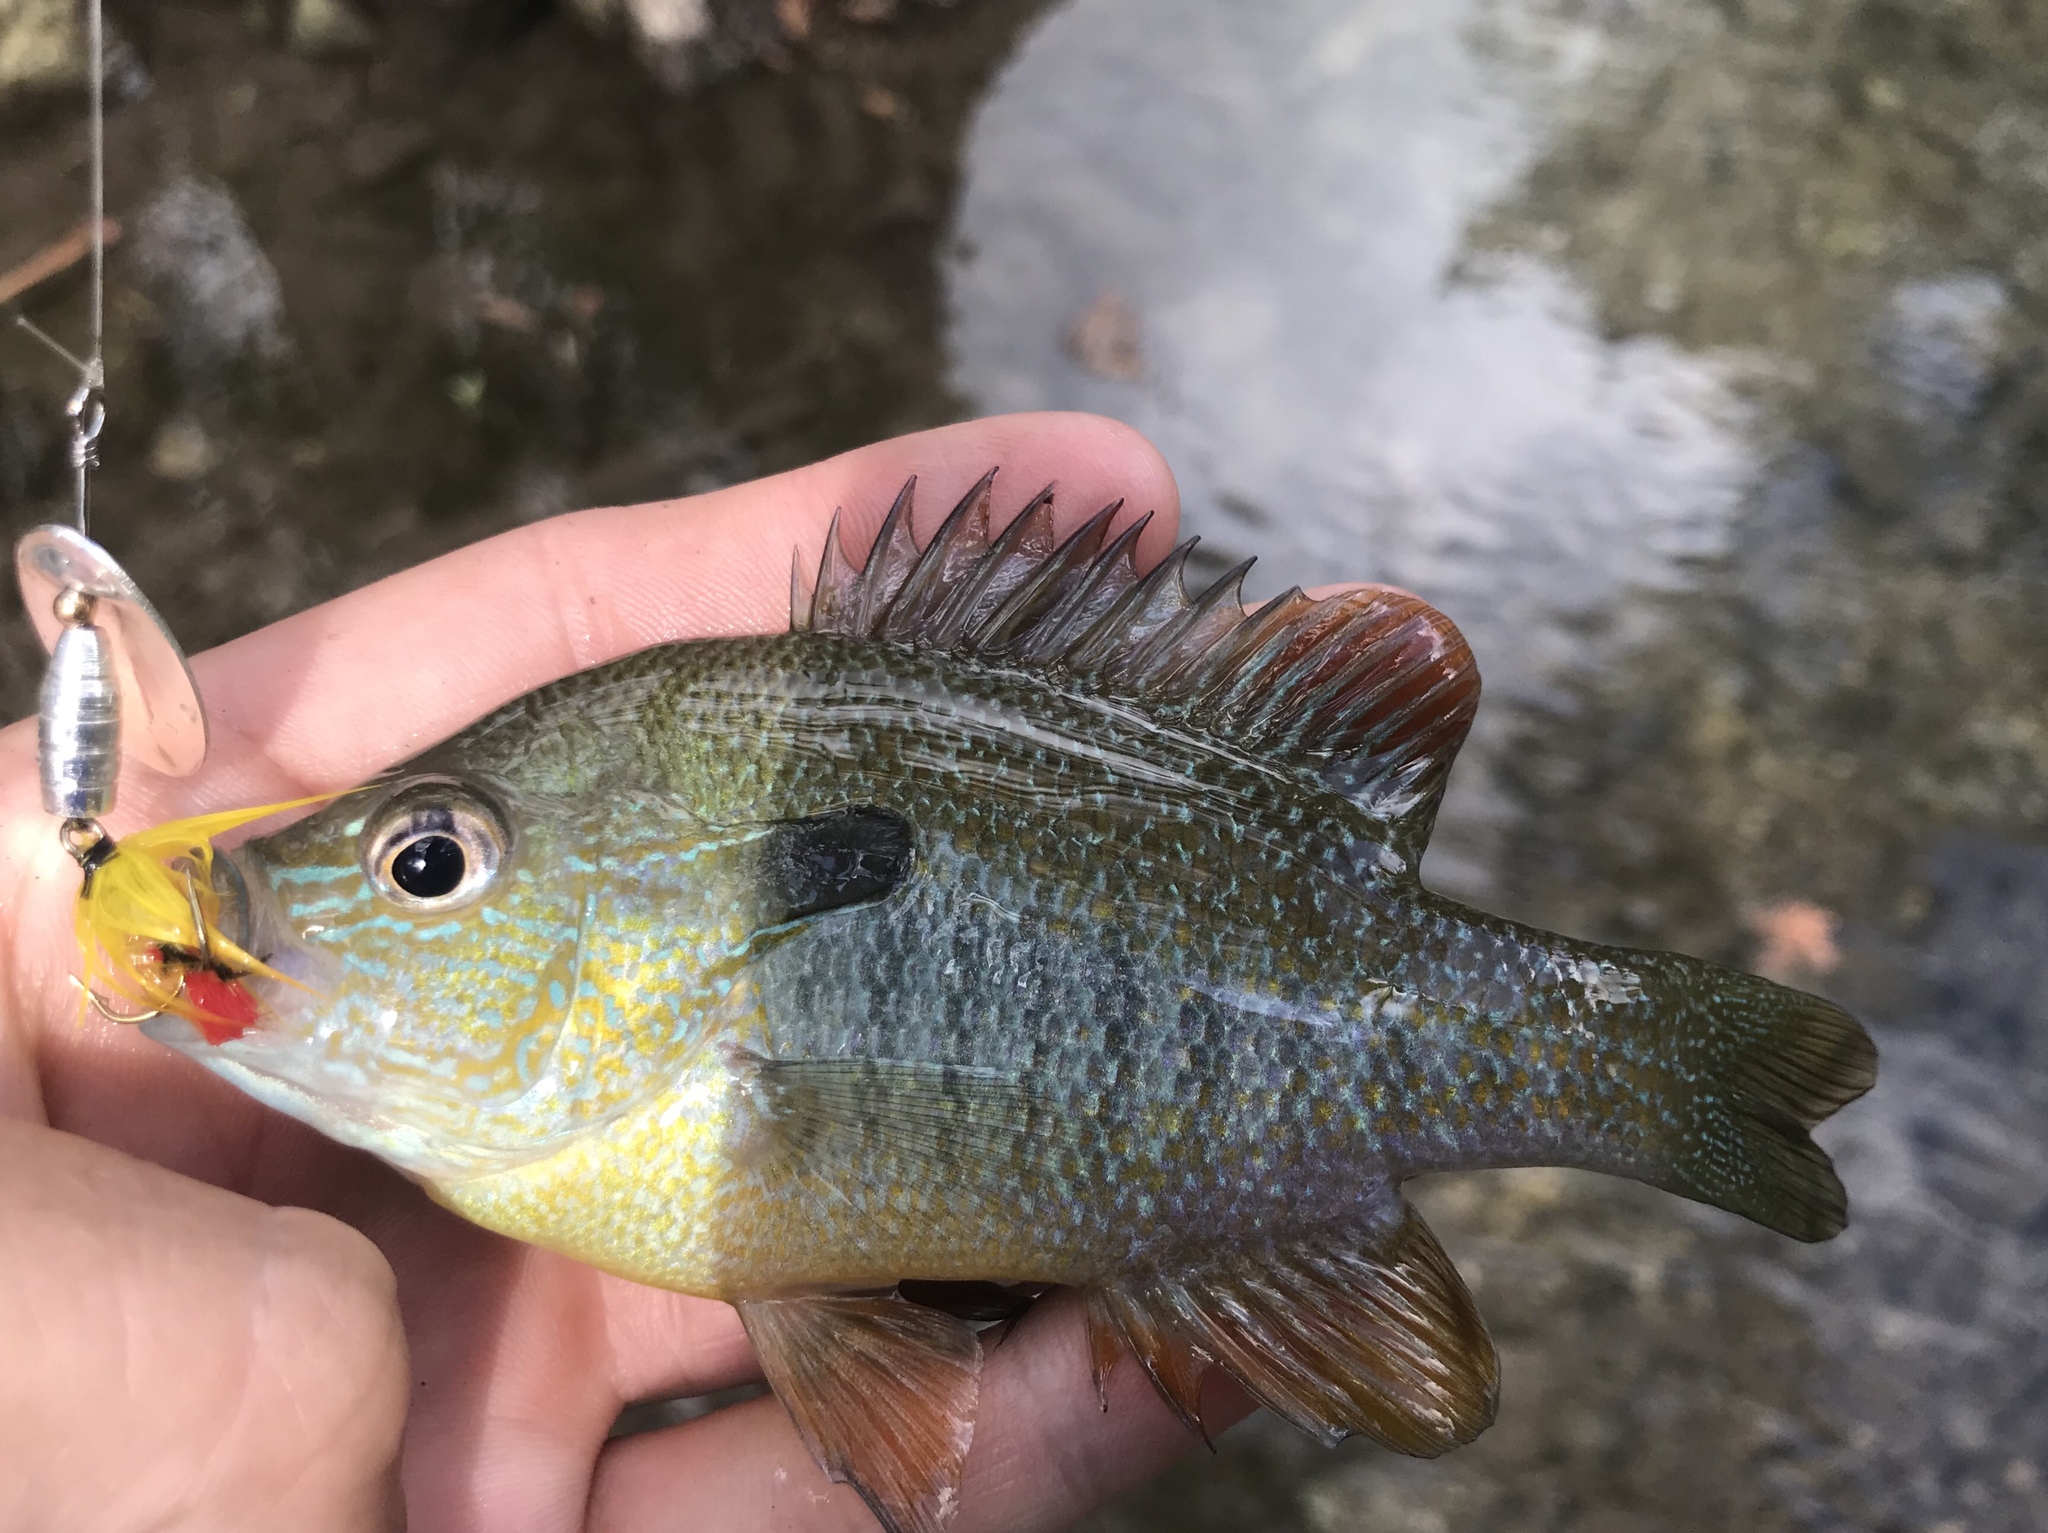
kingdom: Animalia
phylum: Chordata
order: Perciformes
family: Centrarchidae
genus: Lepomis
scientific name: Lepomis megalotis
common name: Longear sunfish
